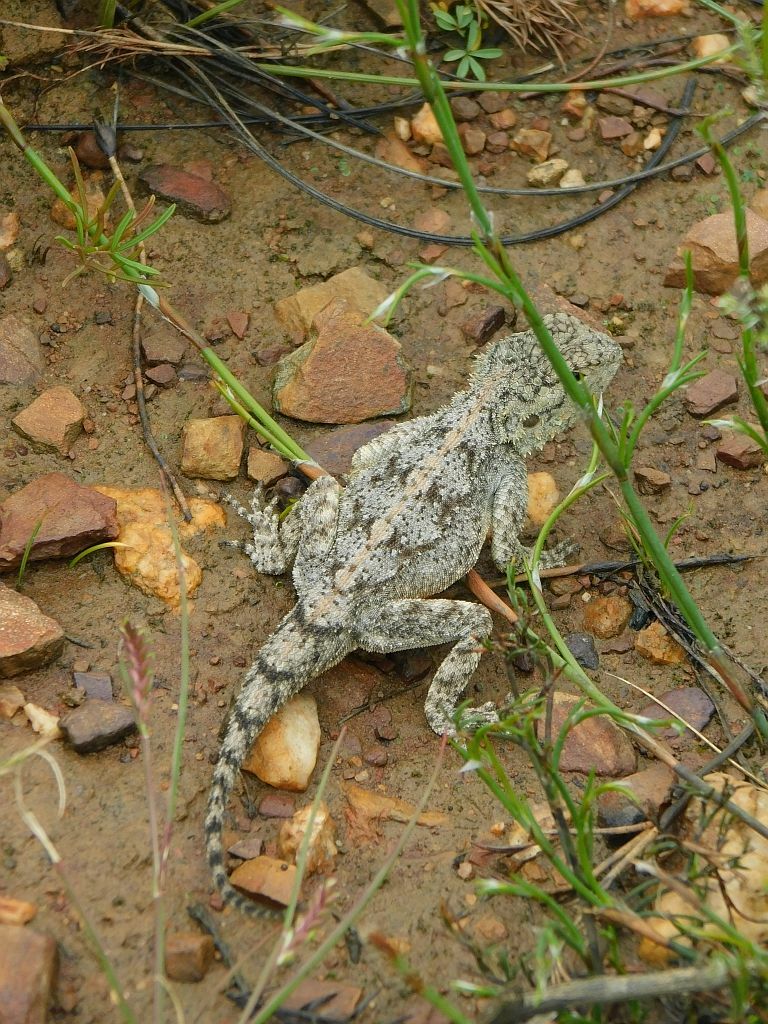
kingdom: Animalia
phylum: Chordata
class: Squamata
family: Agamidae
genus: Agama
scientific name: Agama atra
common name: Southern african rock agama
